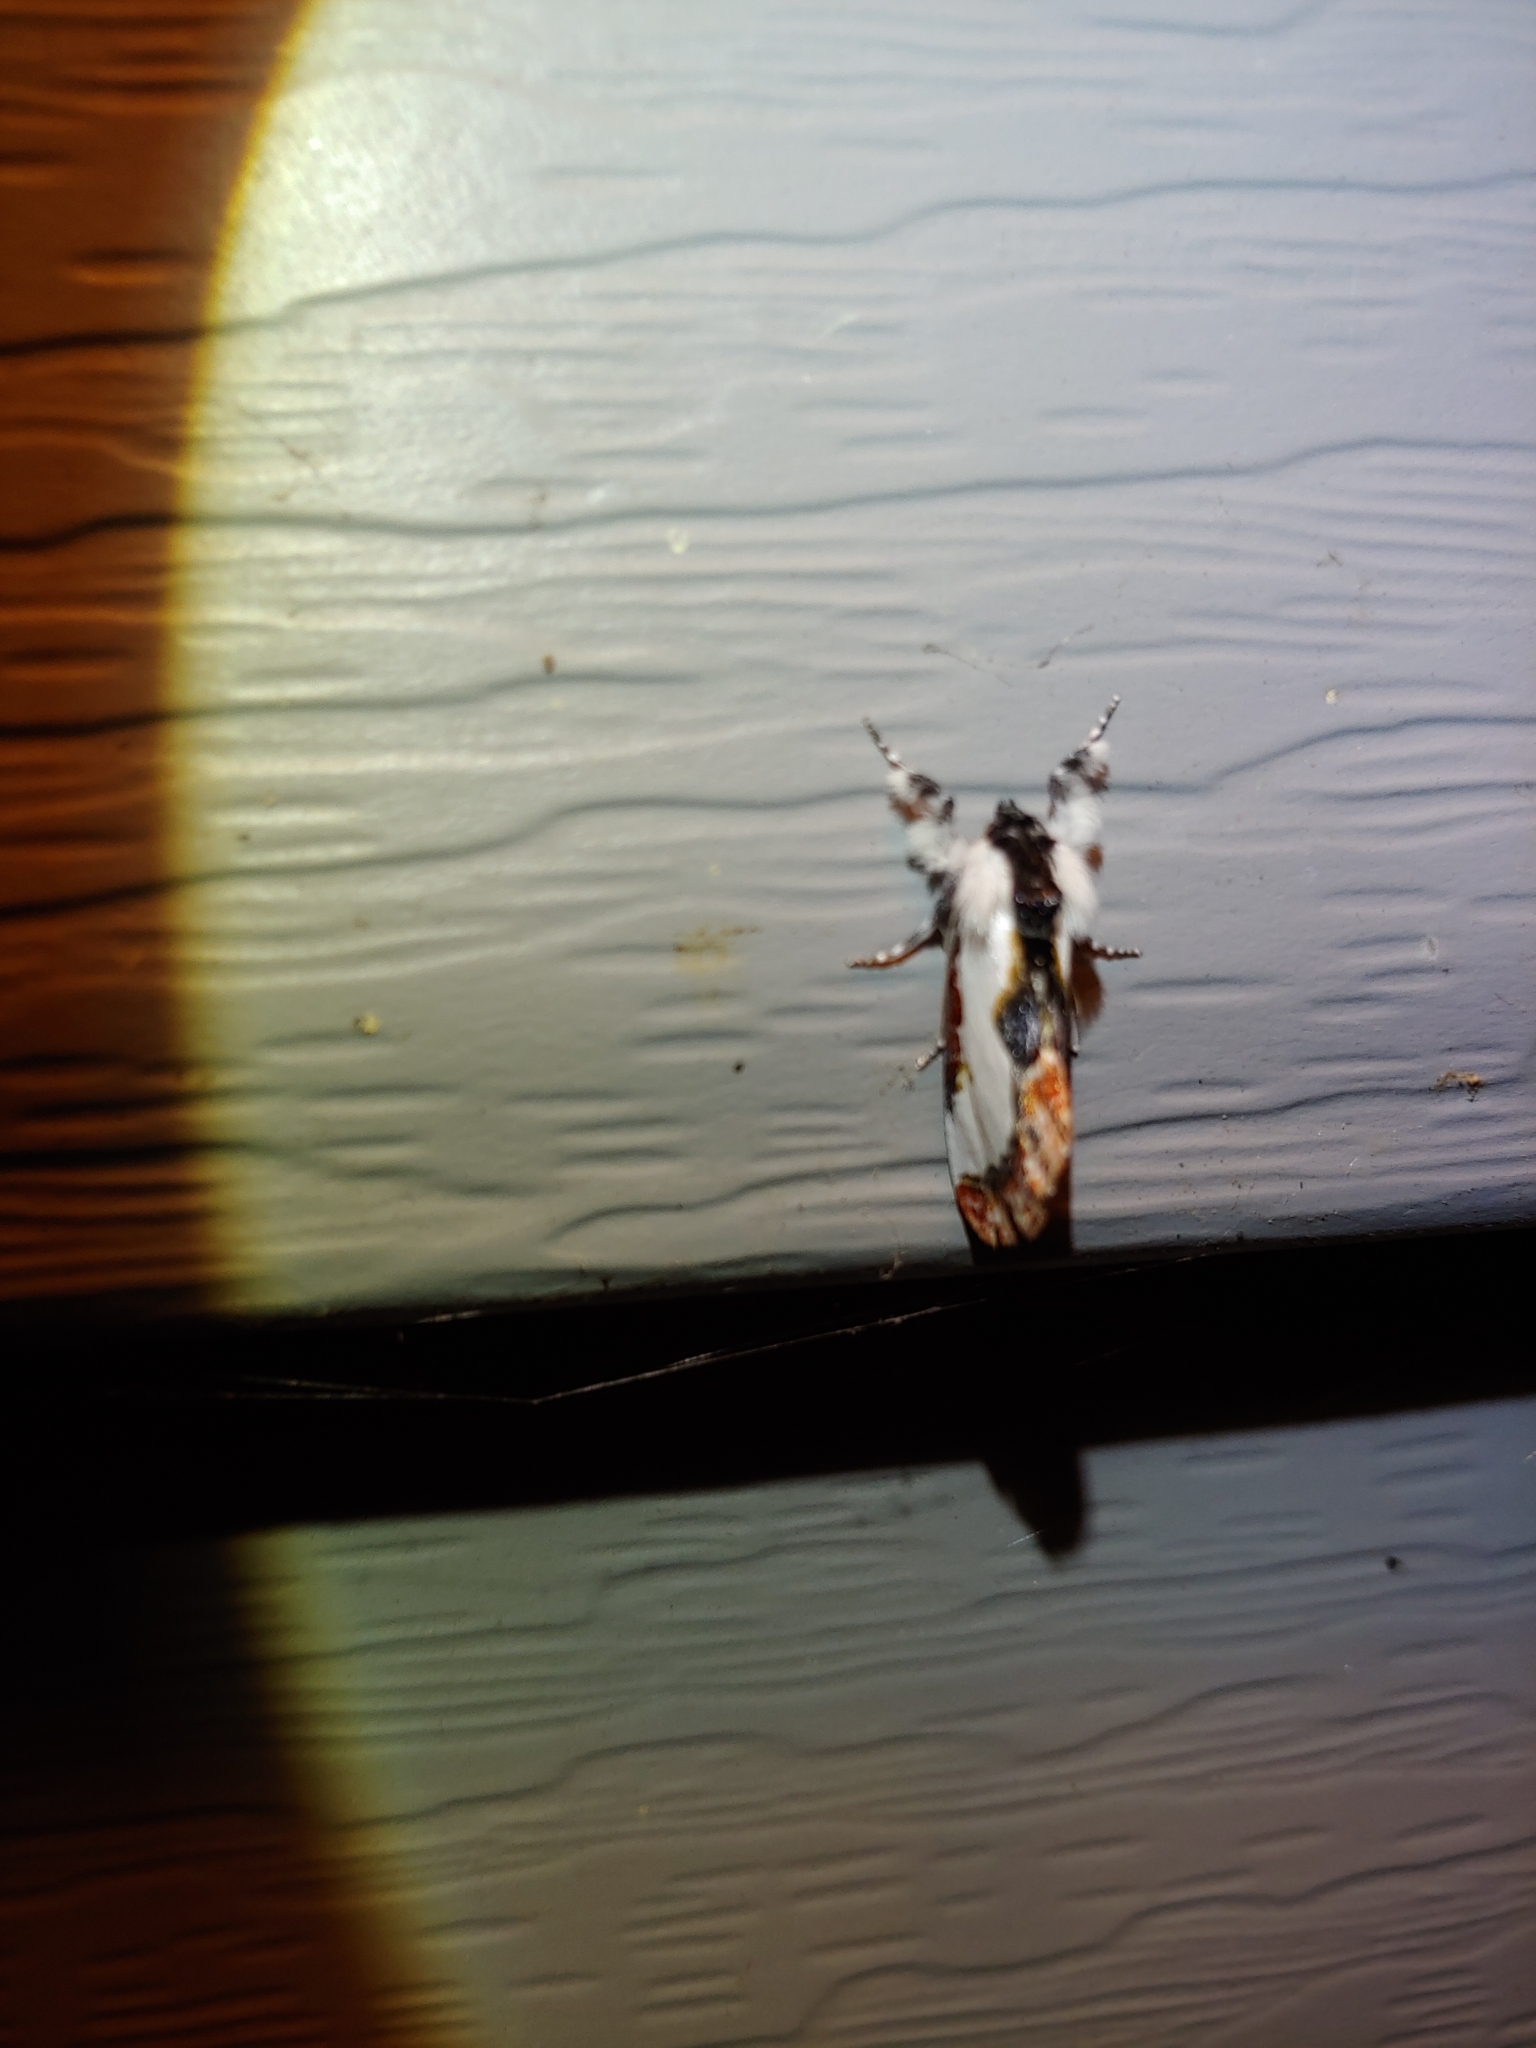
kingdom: Animalia
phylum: Arthropoda
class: Insecta
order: Lepidoptera
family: Noctuidae
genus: Eudryas
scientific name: Eudryas unio
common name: Pearly wood-nymph
